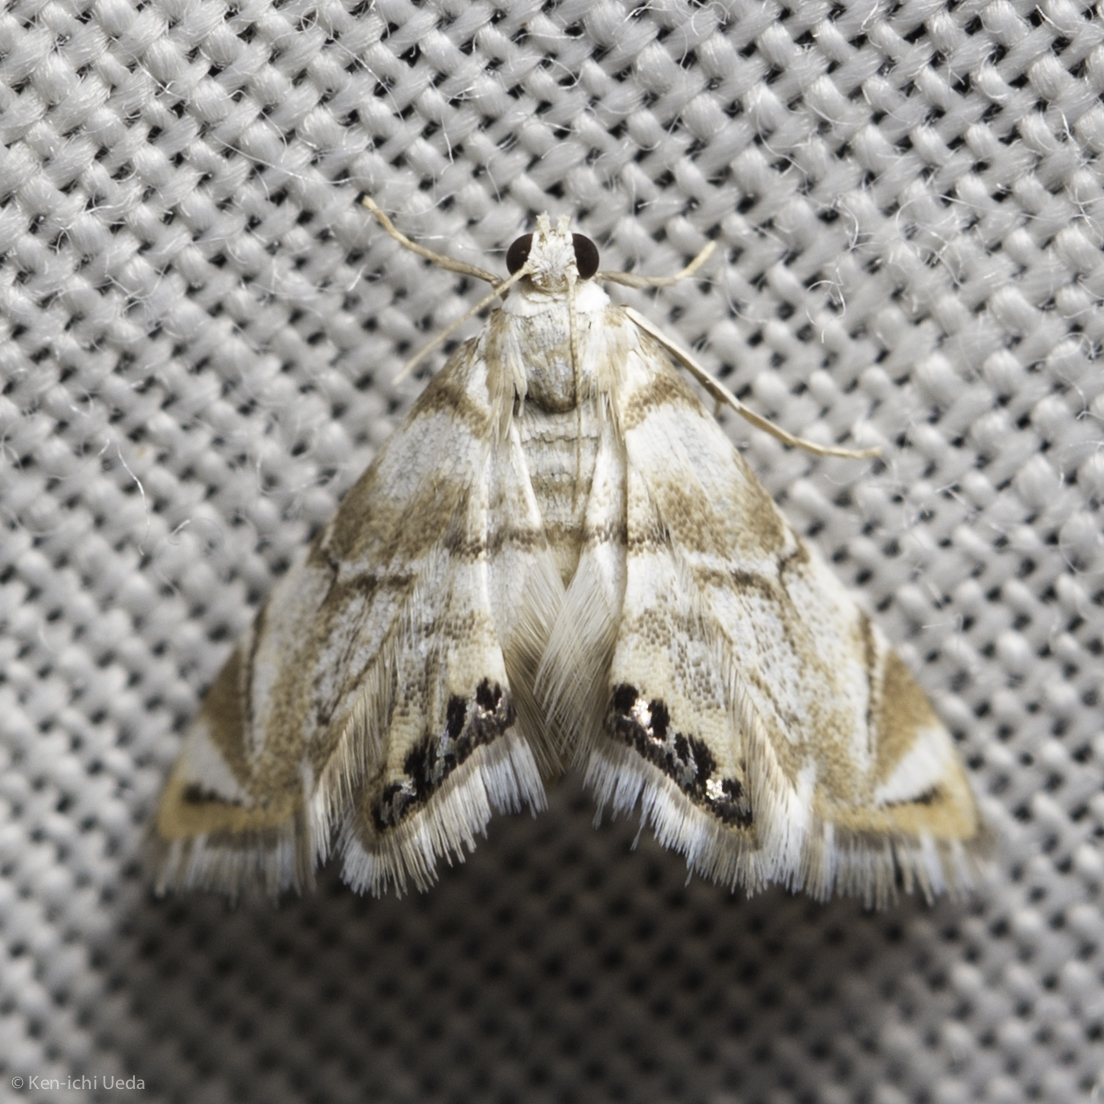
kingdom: Animalia
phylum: Arthropoda
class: Insecta
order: Lepidoptera
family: Crambidae
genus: Eoparargyractis
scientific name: Eoparargyractis plevie
